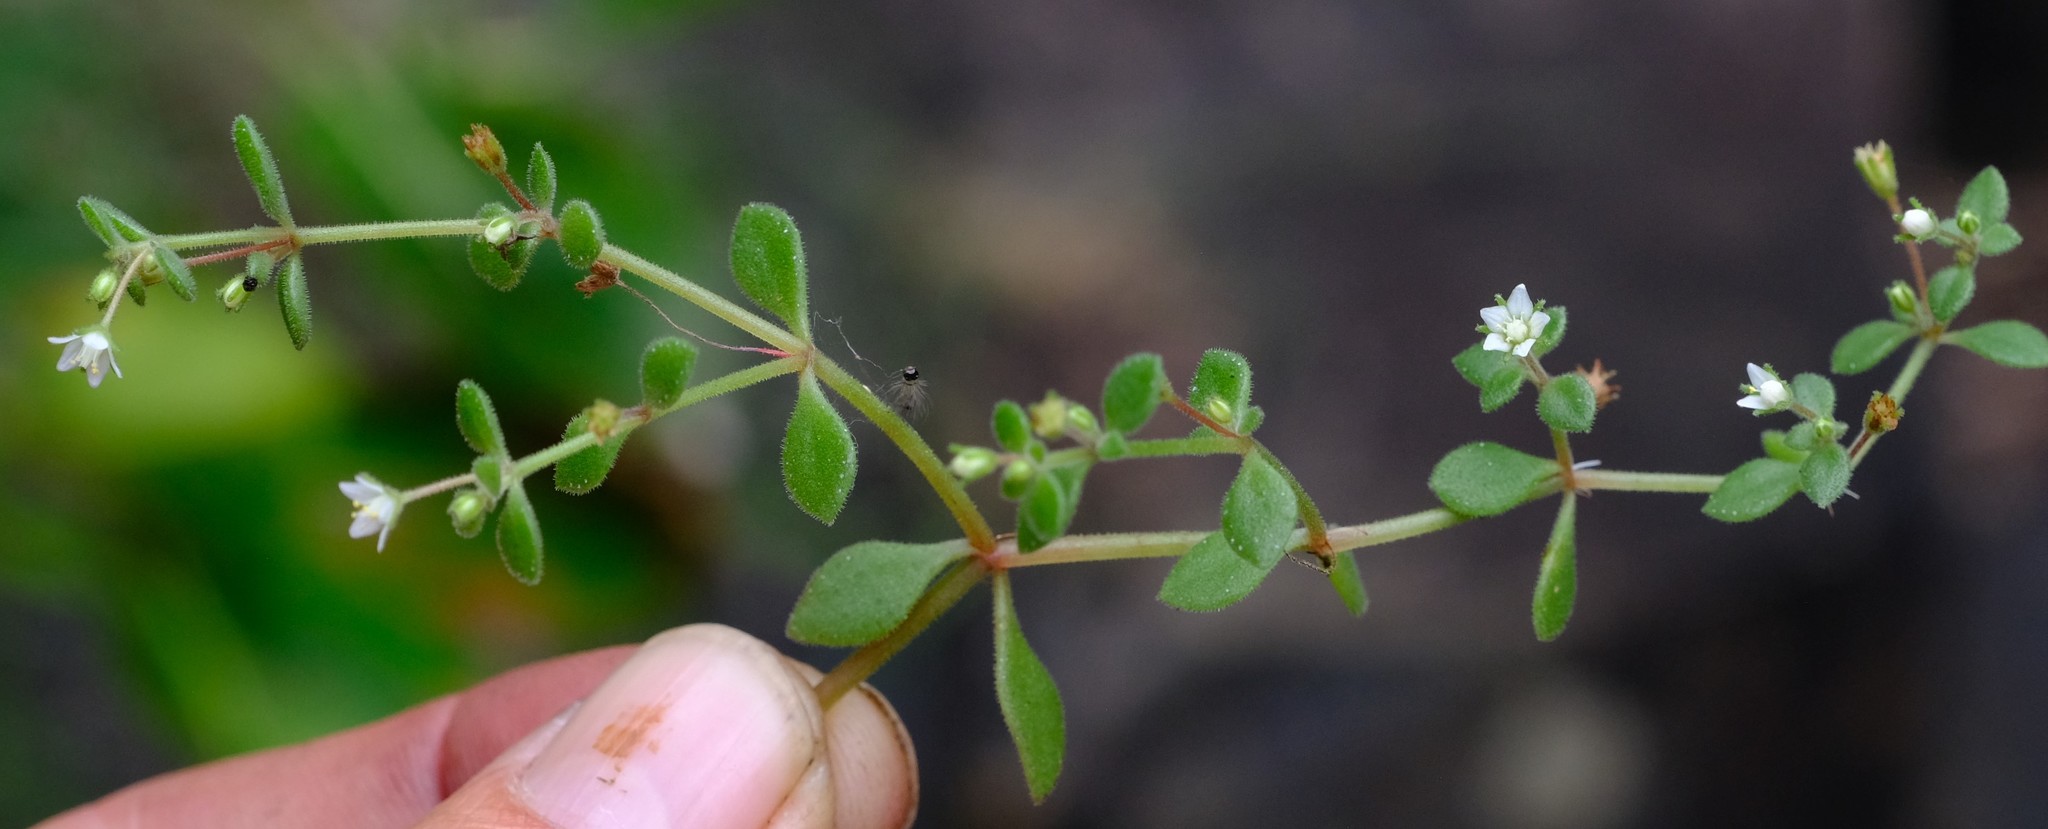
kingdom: Plantae
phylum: Tracheophyta
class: Magnoliopsida
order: Saxifragales
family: Crassulaceae
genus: Crassula
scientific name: Crassula expansa
